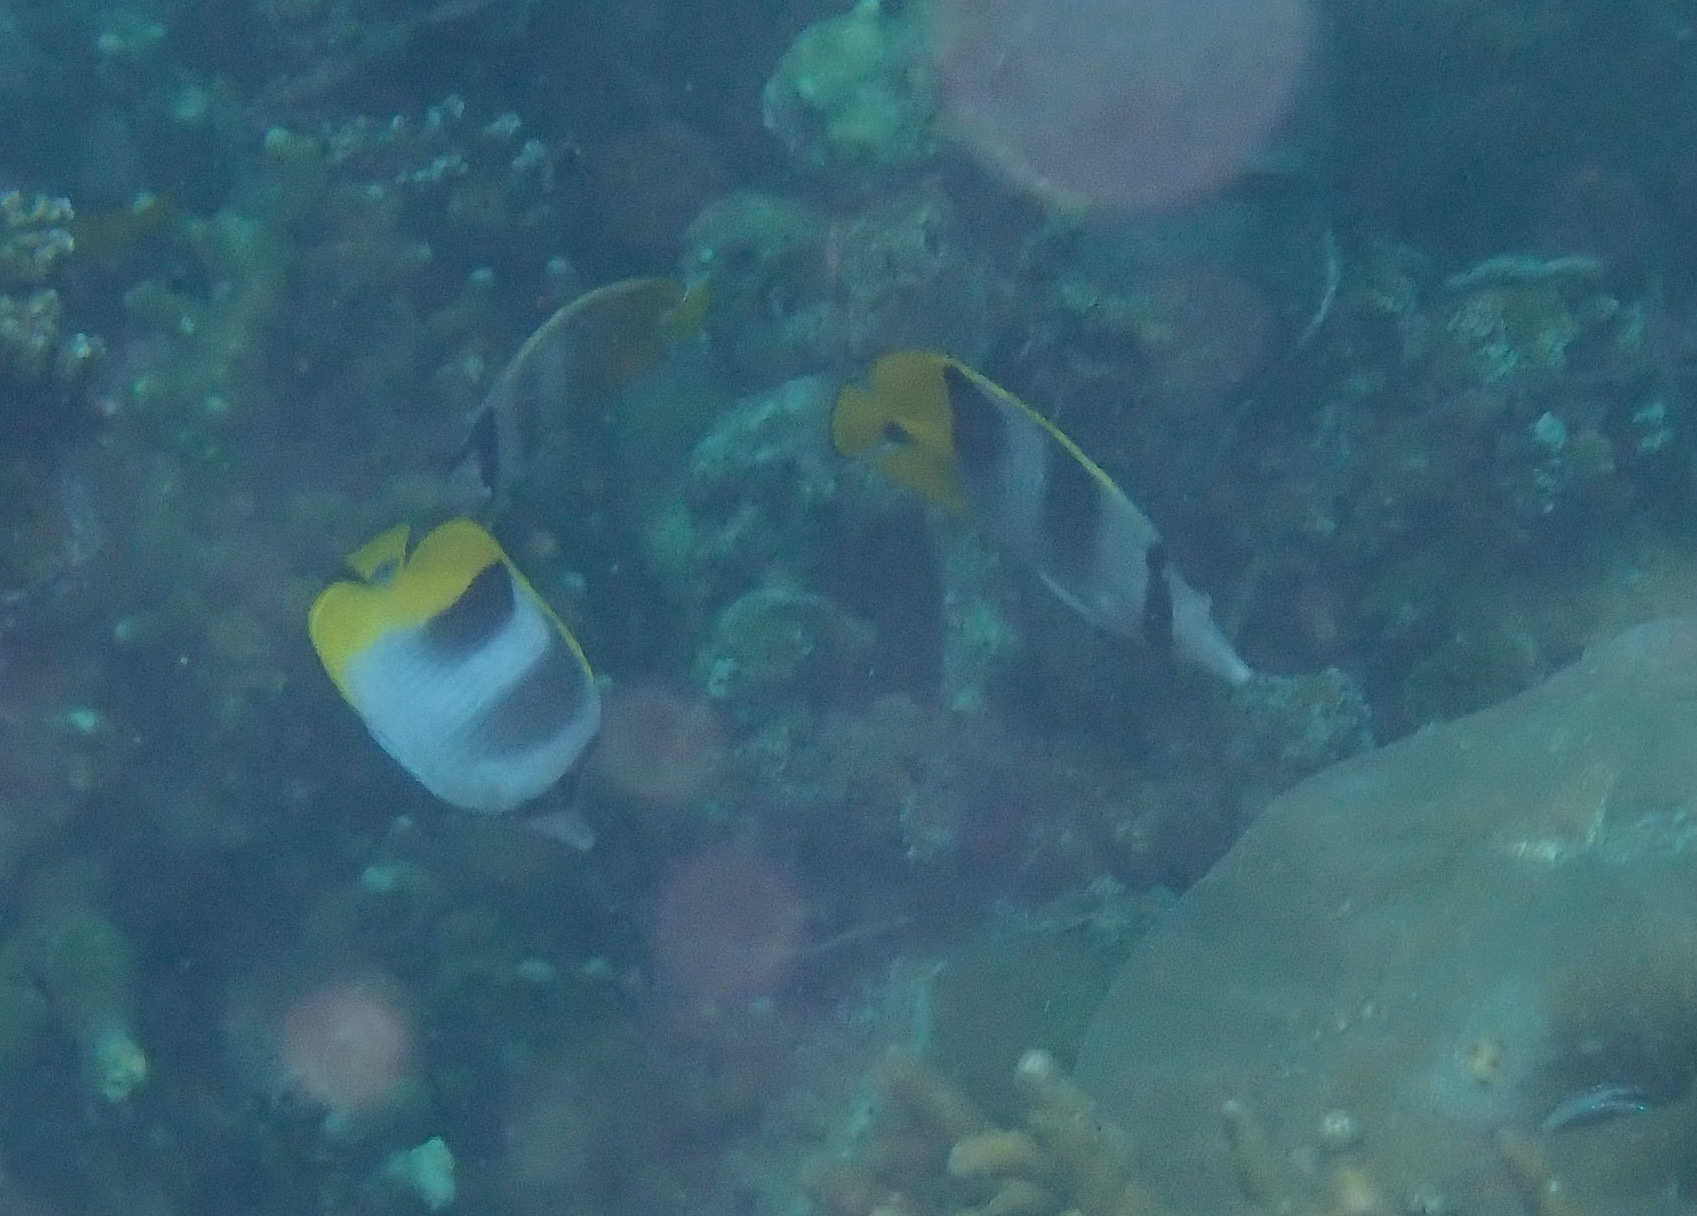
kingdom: Animalia
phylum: Chordata
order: Perciformes
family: Chaetodontidae
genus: Chaetodon
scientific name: Chaetodon ulietensis
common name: Pacific double-saddle butterflyfish
